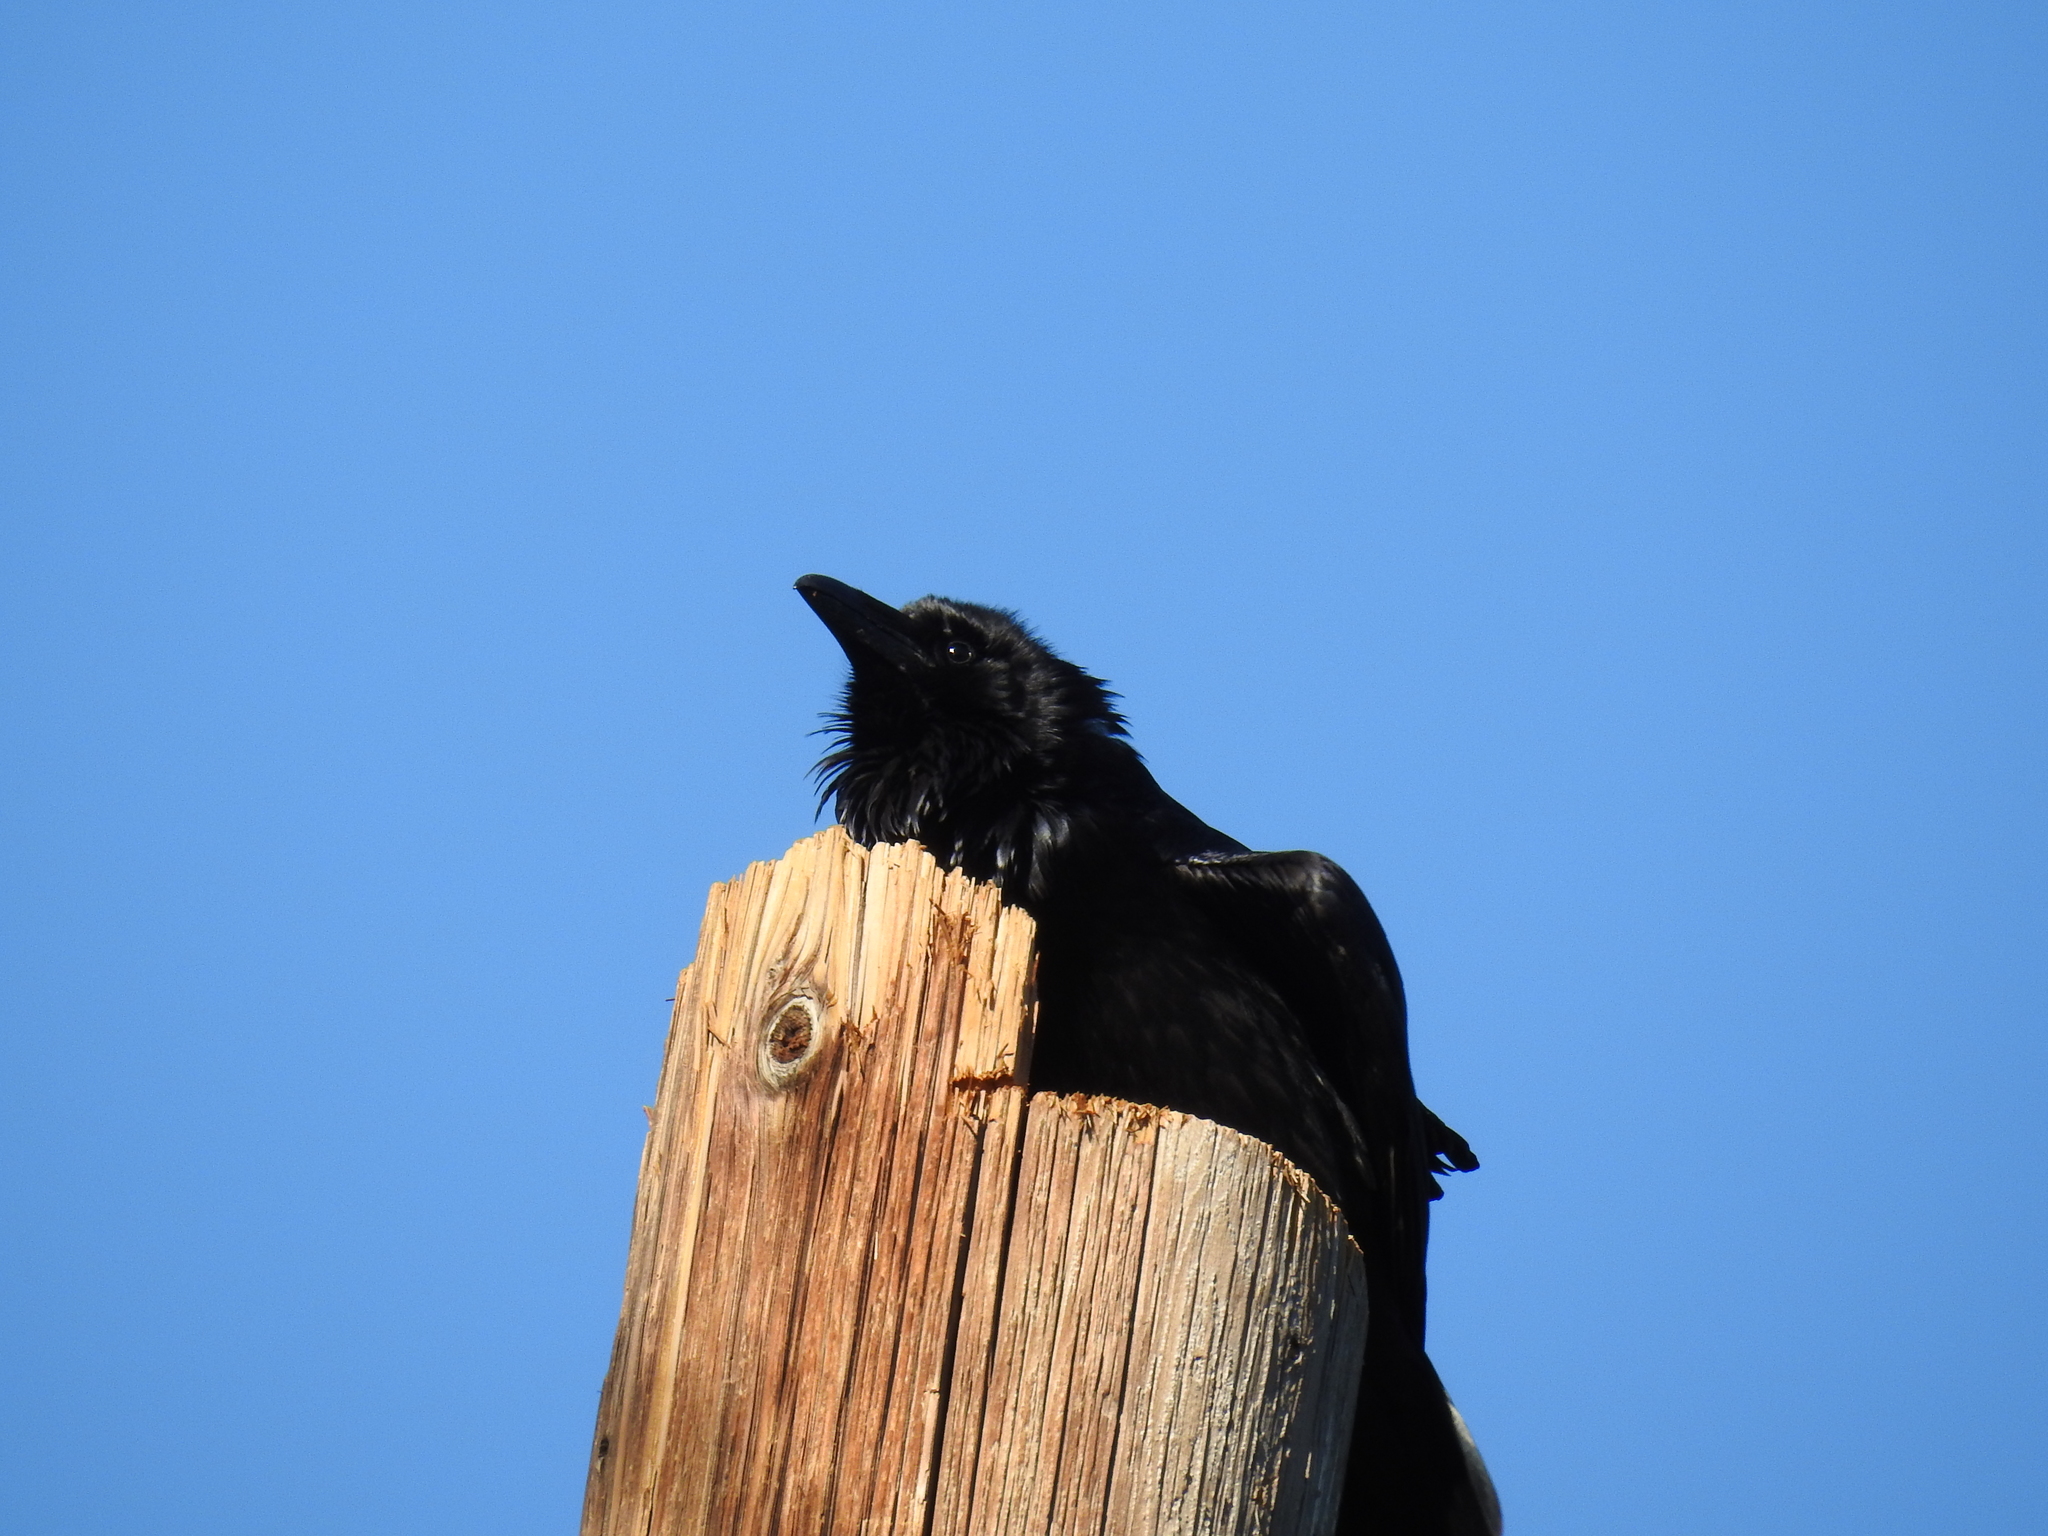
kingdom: Animalia
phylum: Chordata
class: Aves
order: Passeriformes
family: Corvidae
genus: Corvus
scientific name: Corvus corax
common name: Common raven
